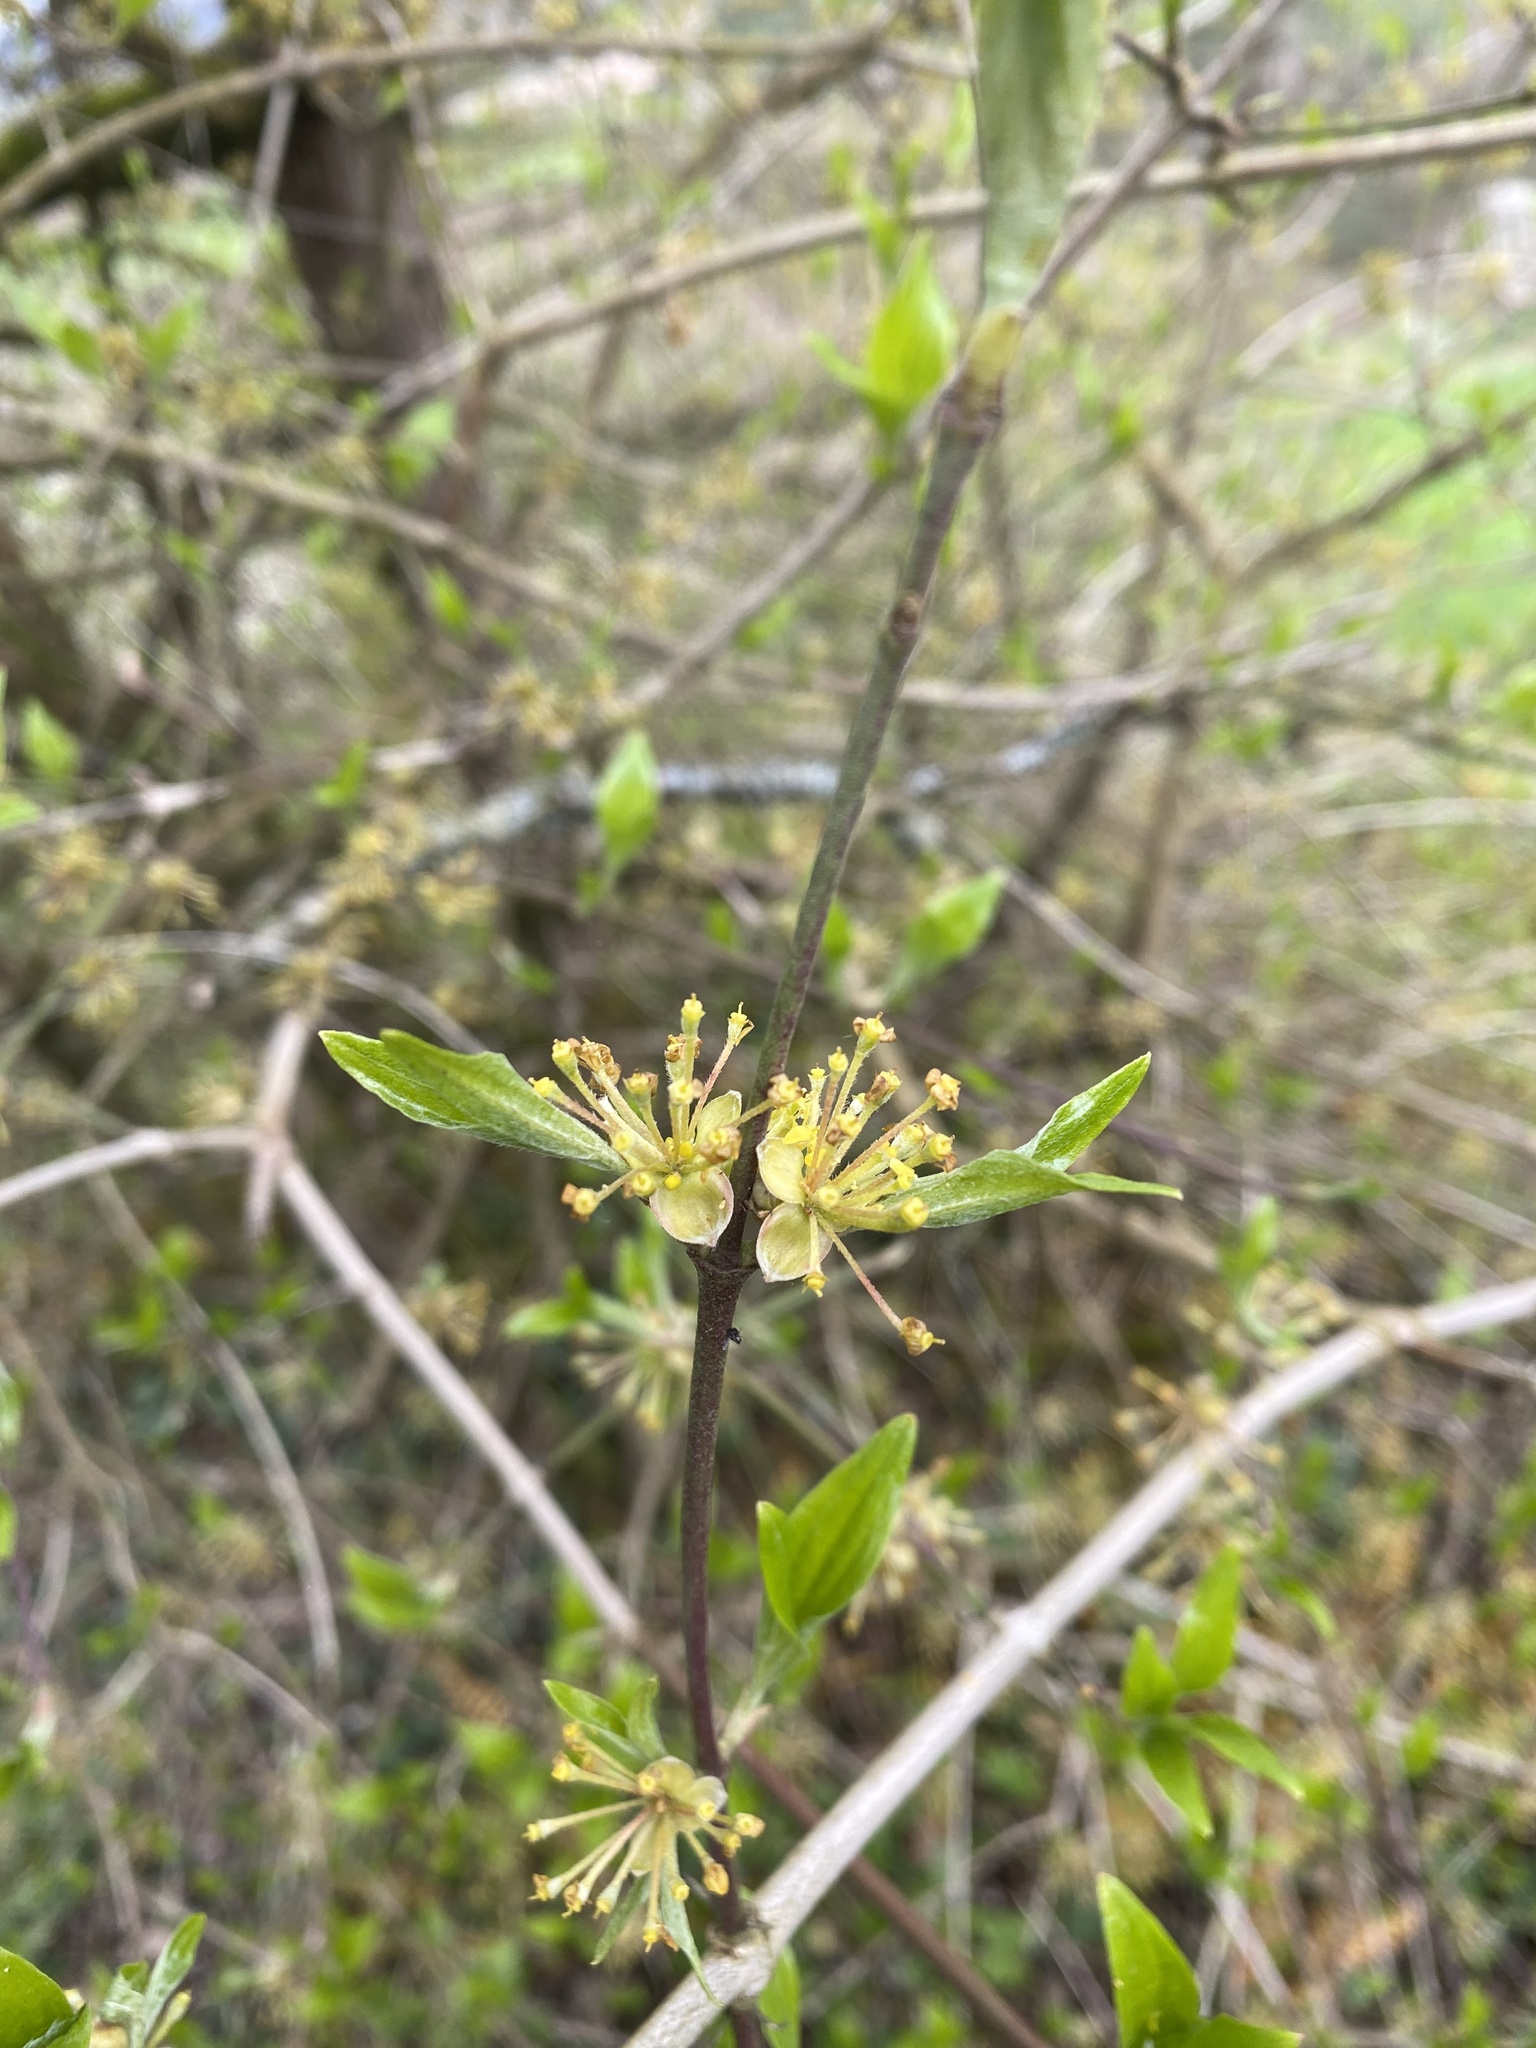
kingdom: Plantae
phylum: Tracheophyta
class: Magnoliopsida
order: Cornales
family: Cornaceae
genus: Cornus
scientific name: Cornus mas
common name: Cornelian-cherry
